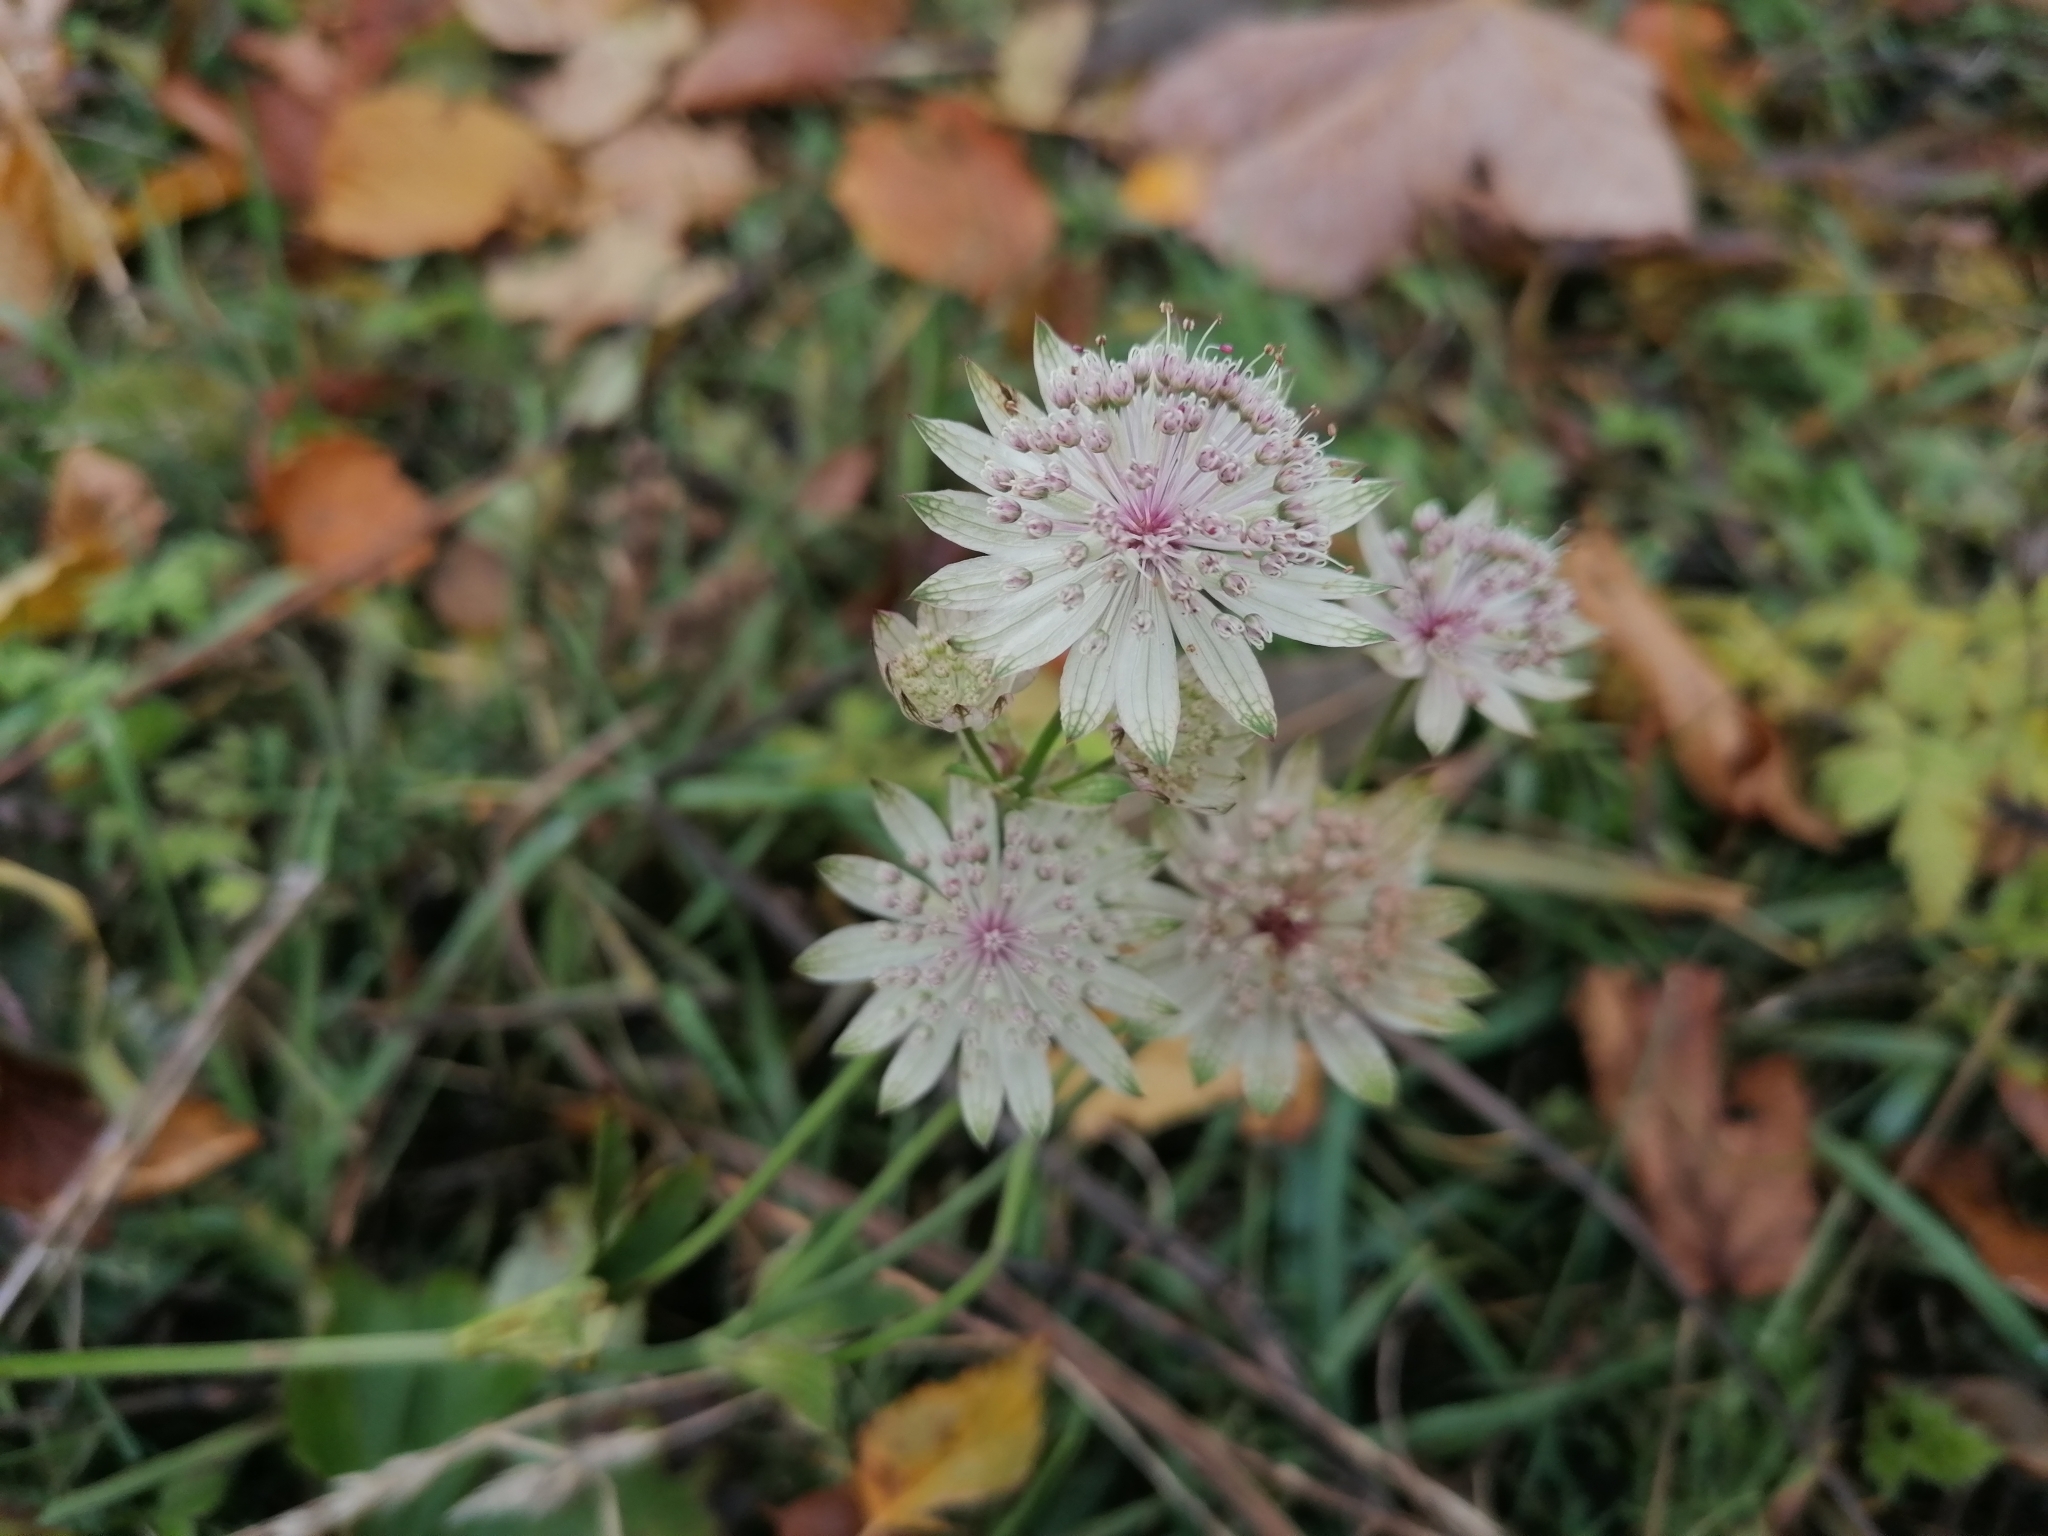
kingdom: Plantae
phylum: Tracheophyta
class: Magnoliopsida
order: Apiales
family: Apiaceae
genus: Astrantia
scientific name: Astrantia major
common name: Greater masterwort
